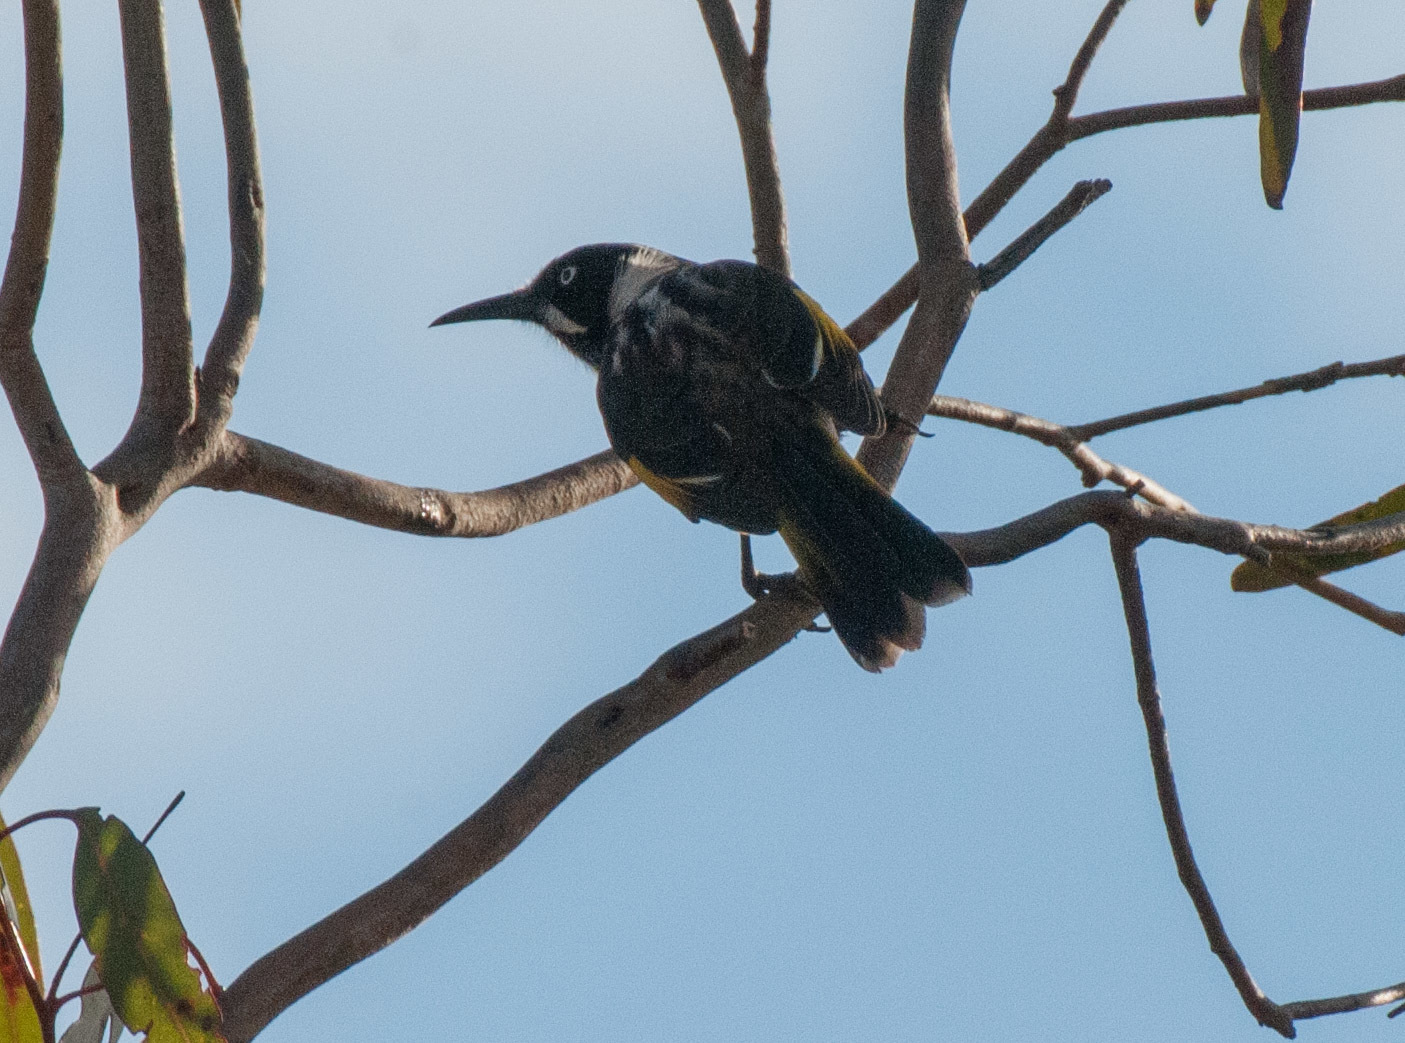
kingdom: Animalia
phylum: Chordata
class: Aves
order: Passeriformes
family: Meliphagidae
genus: Phylidonyris
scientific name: Phylidonyris novaehollandiae
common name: New holland honeyeater
